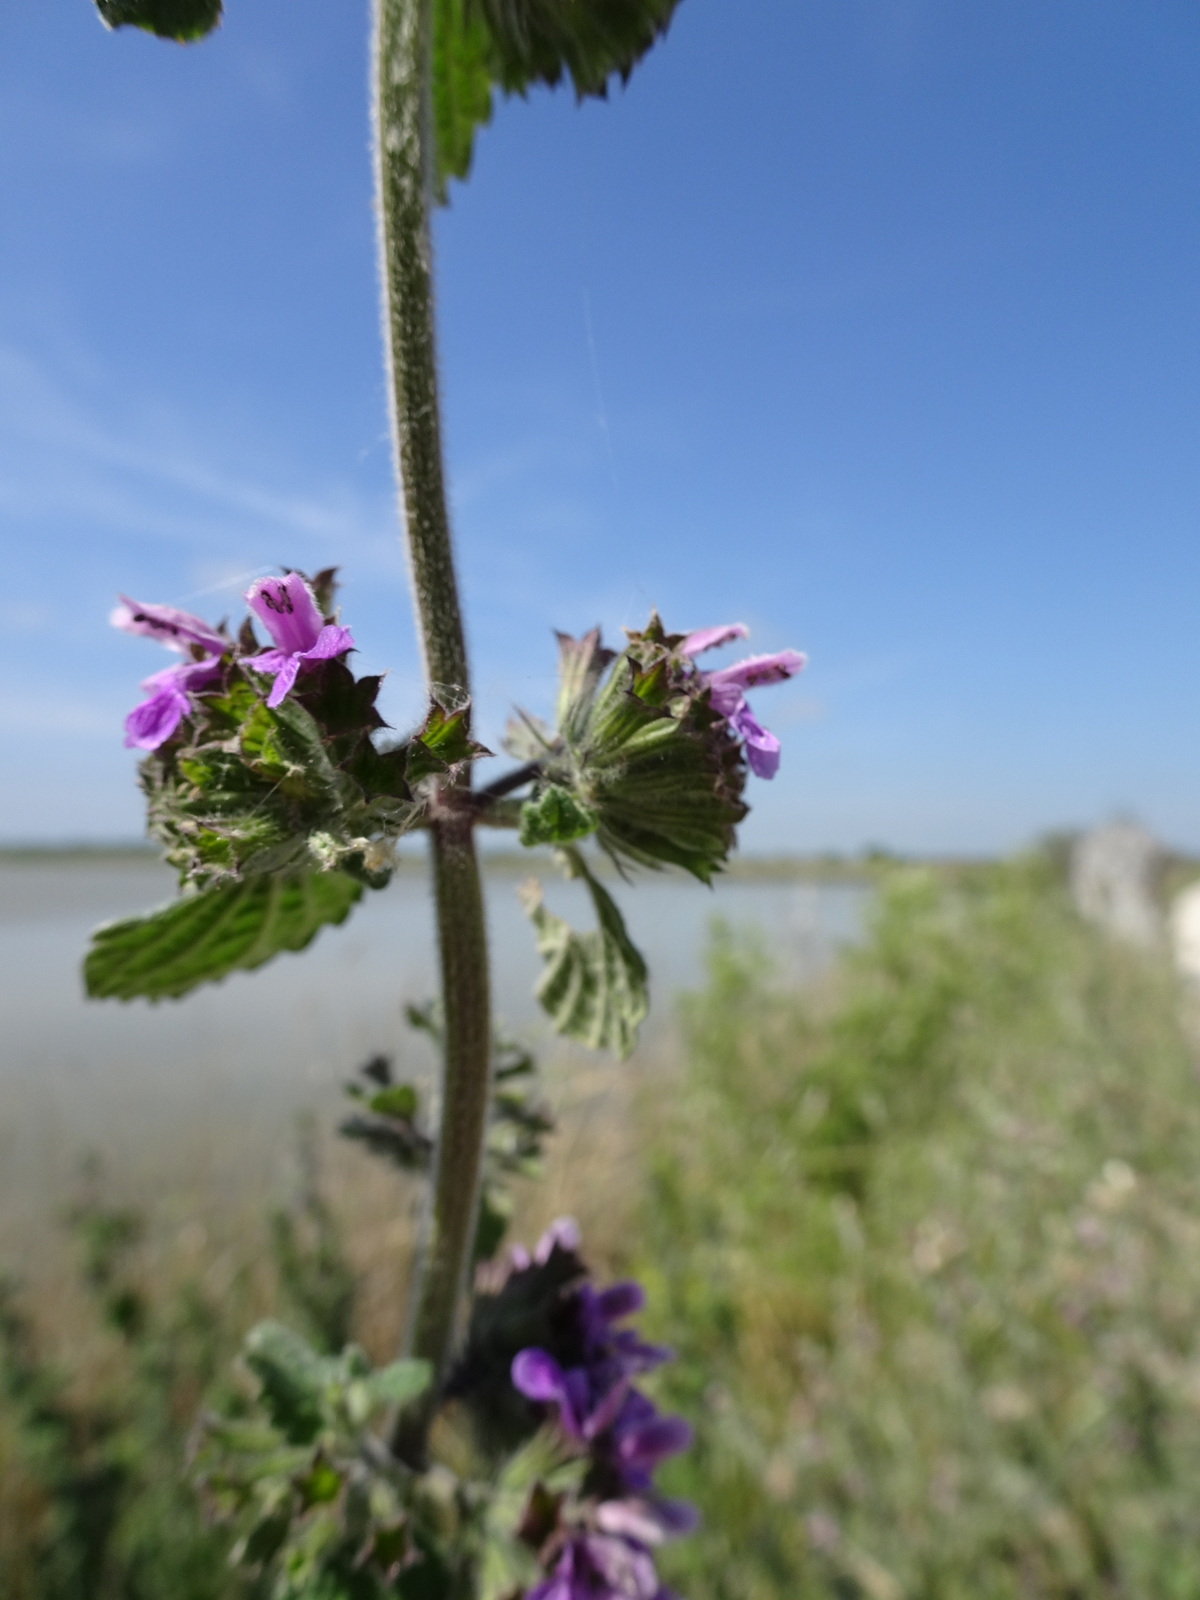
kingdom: Plantae
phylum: Tracheophyta
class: Magnoliopsida
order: Lamiales
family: Lamiaceae
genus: Ballota
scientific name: Ballota nigra
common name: Black horehound
